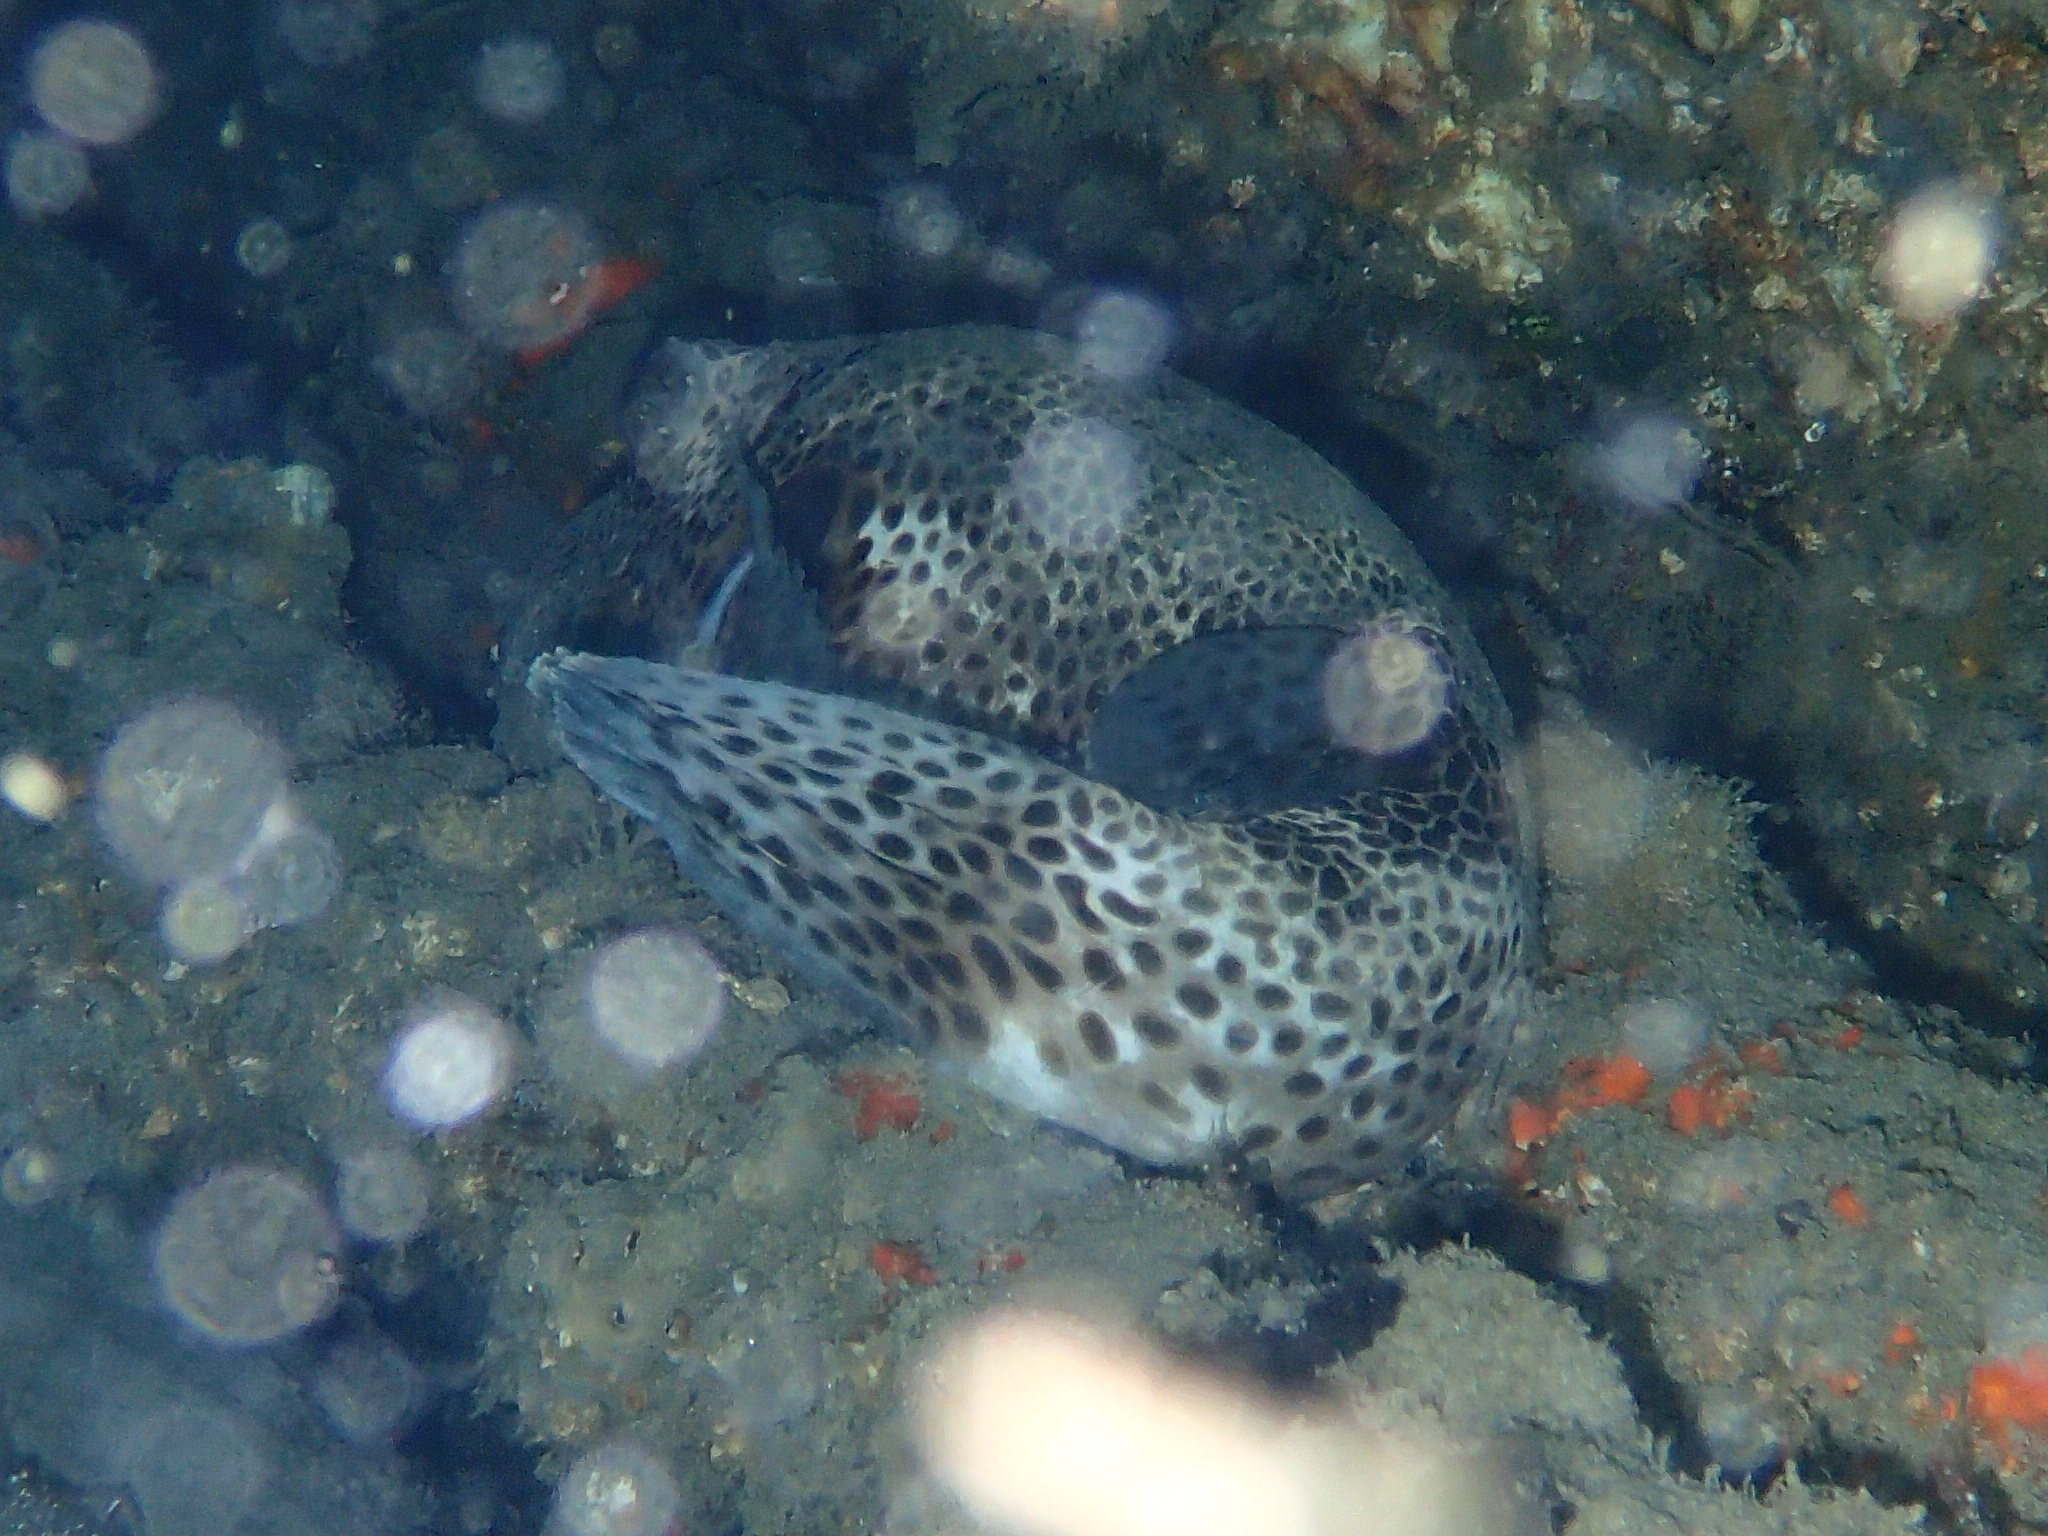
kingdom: Animalia
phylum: Chordata
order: Tetraodontiformes
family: Tetraodontidae
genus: Arothron
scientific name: Arothron stellatus
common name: Star blaasop
